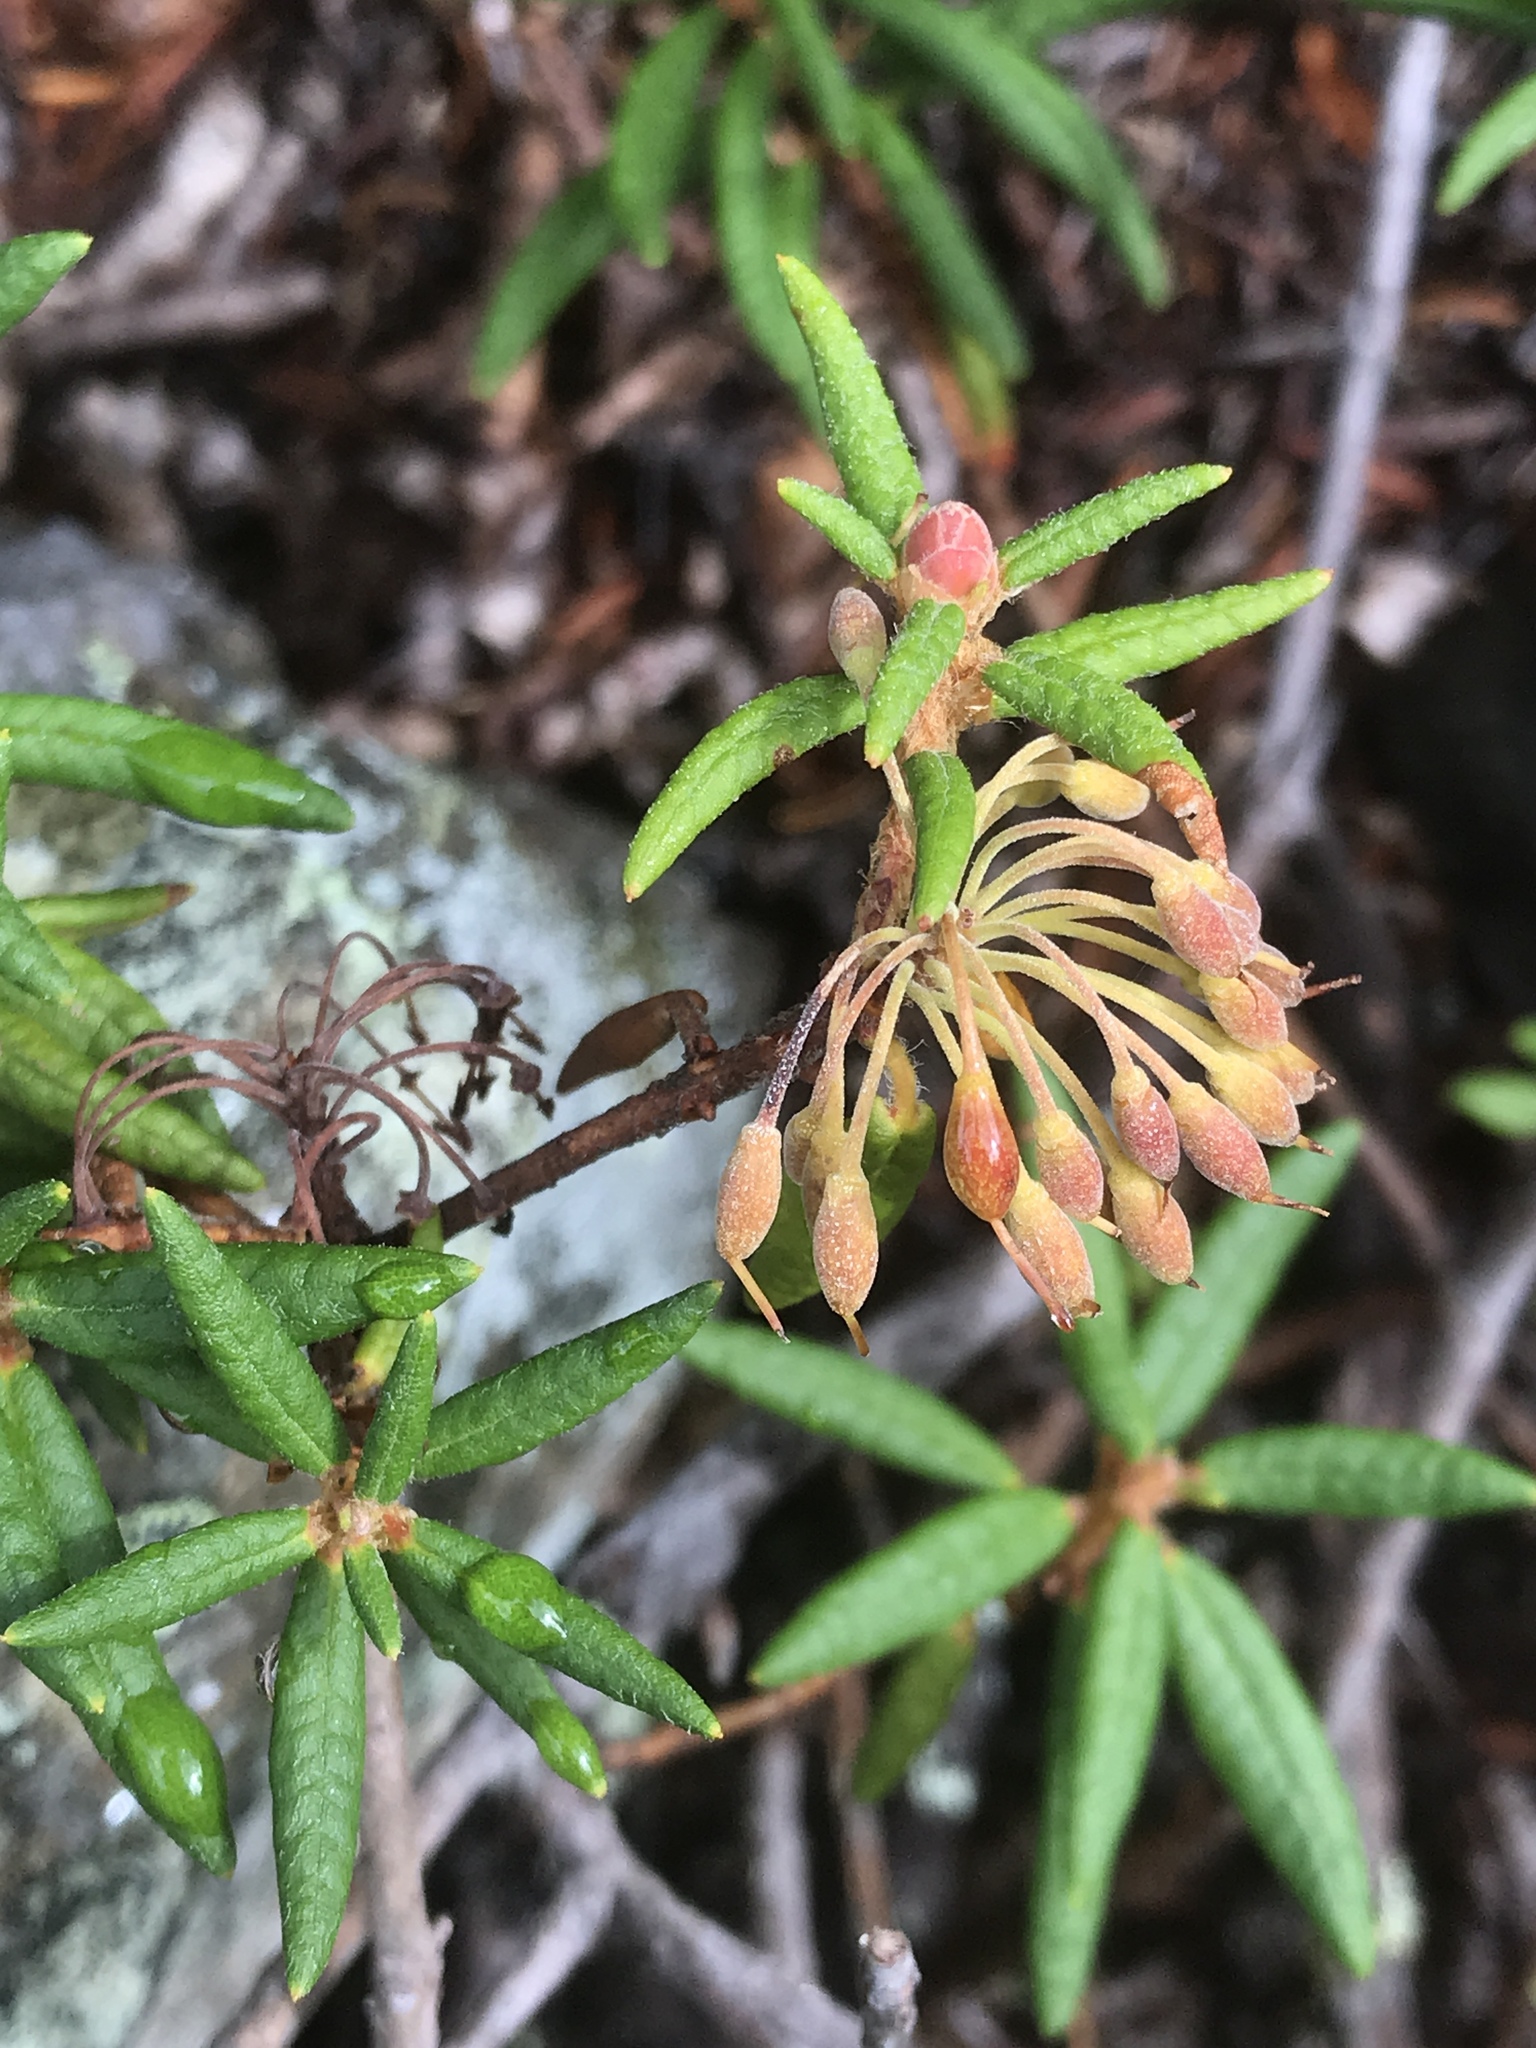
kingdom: Plantae
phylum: Tracheophyta
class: Magnoliopsida
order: Ericales
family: Ericaceae
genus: Rhododendron
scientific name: Rhododendron groenlandicum
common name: Bog labrador tea
